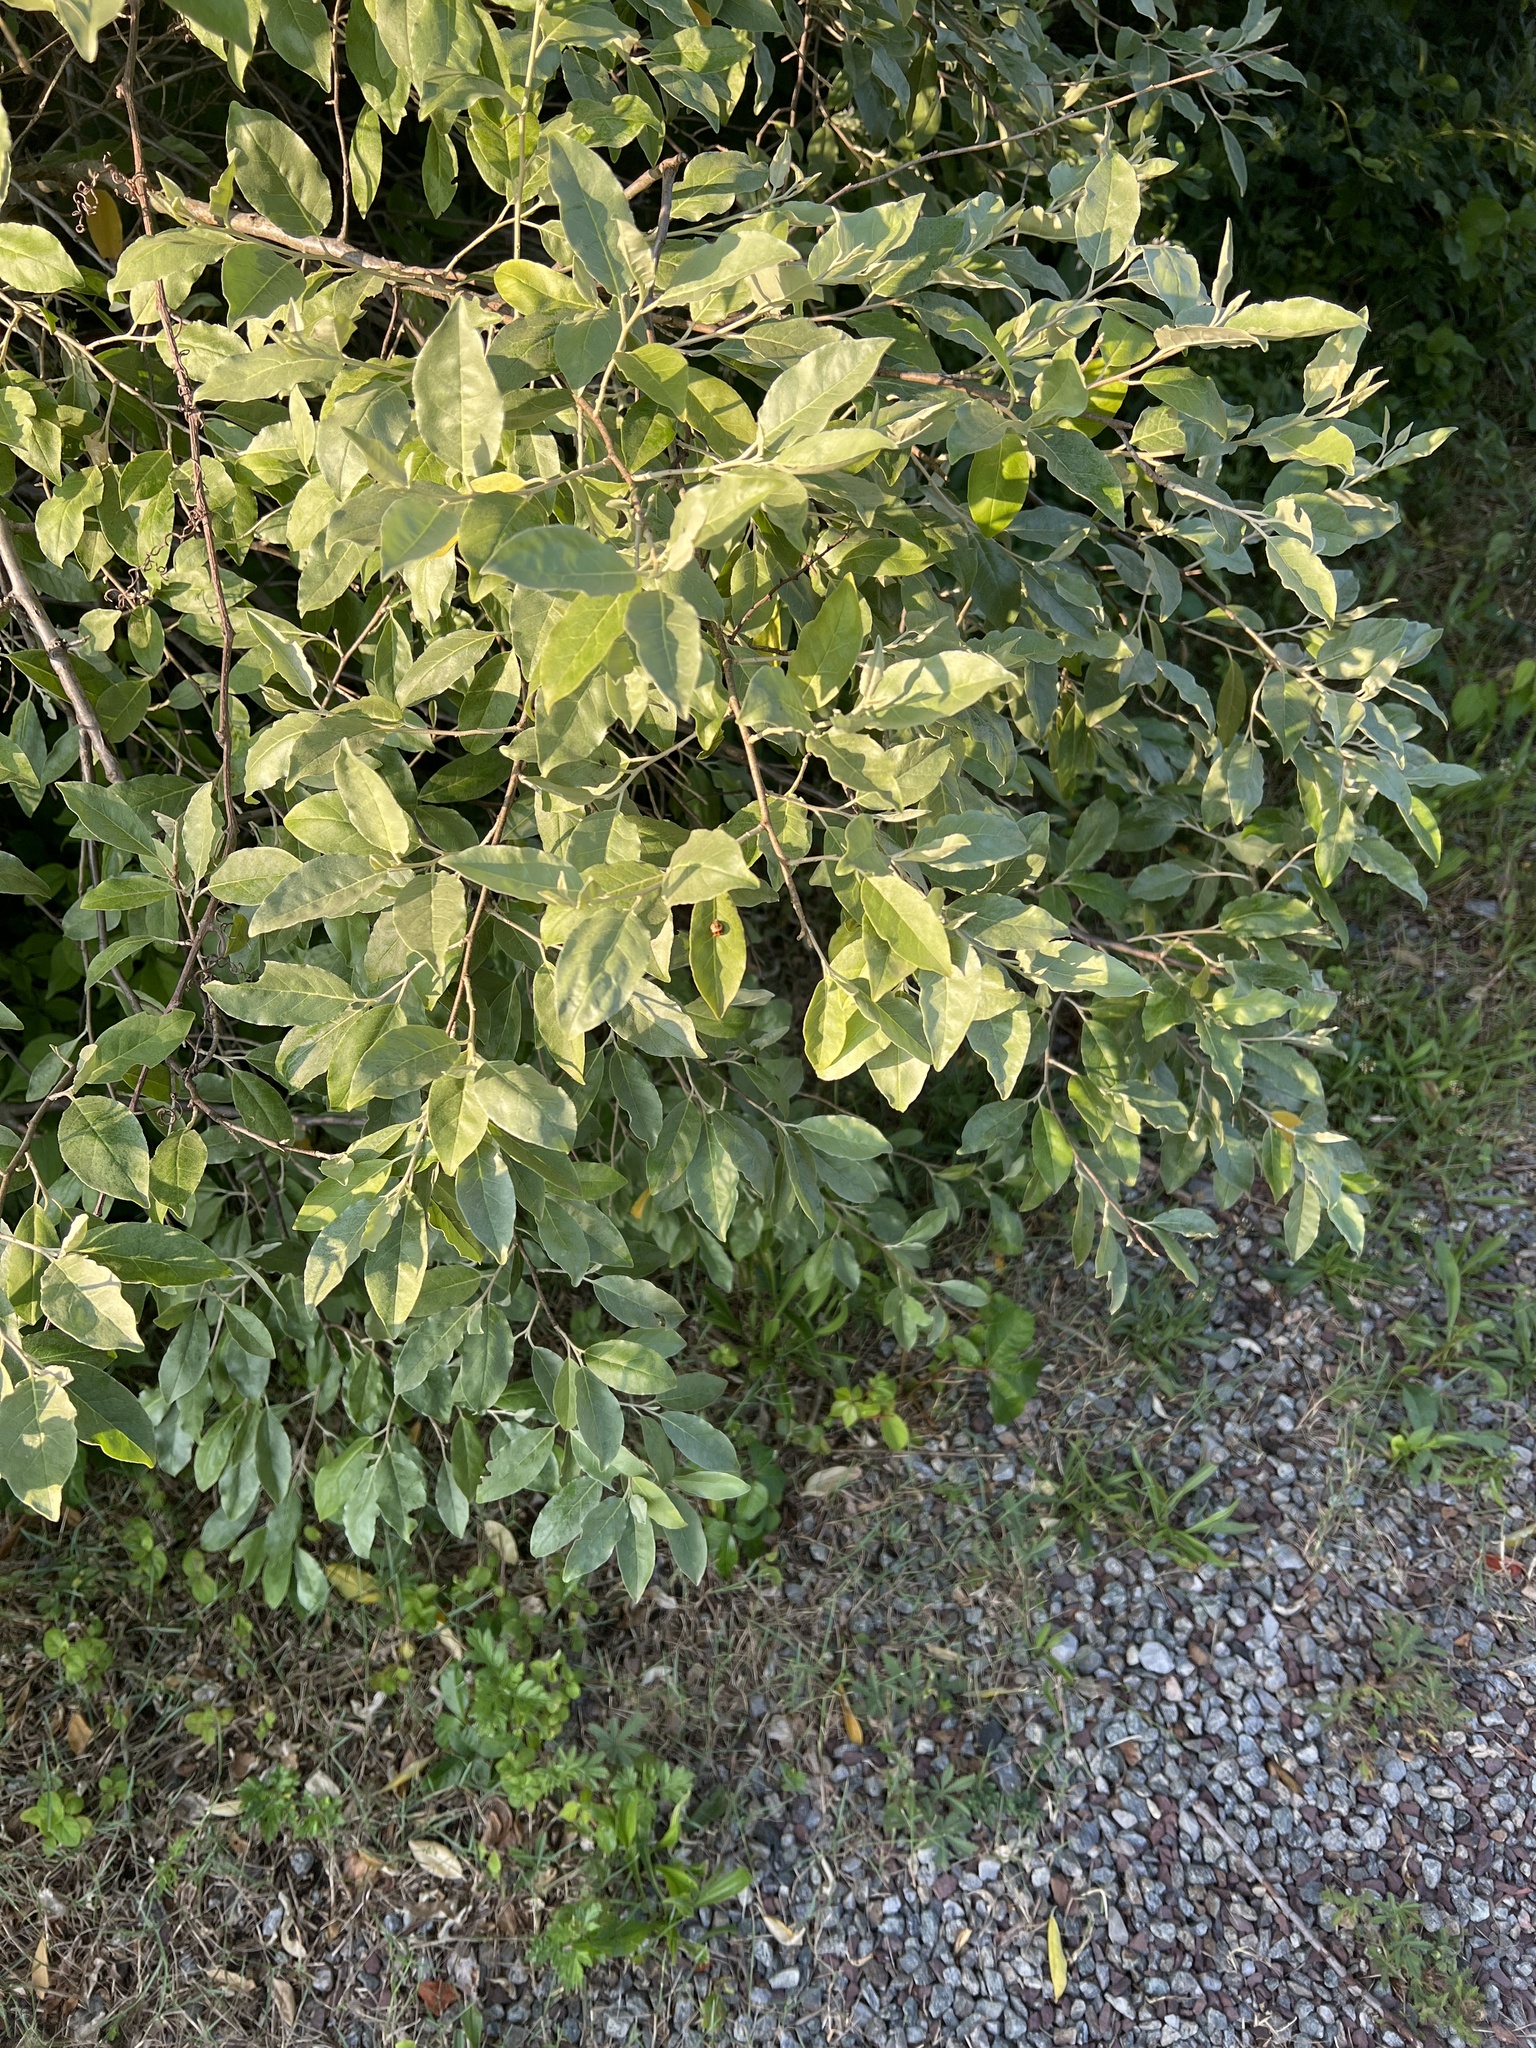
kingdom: Plantae
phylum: Tracheophyta
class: Magnoliopsida
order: Rosales
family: Elaeagnaceae
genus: Elaeagnus
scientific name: Elaeagnus umbellata
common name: Autumn olive
